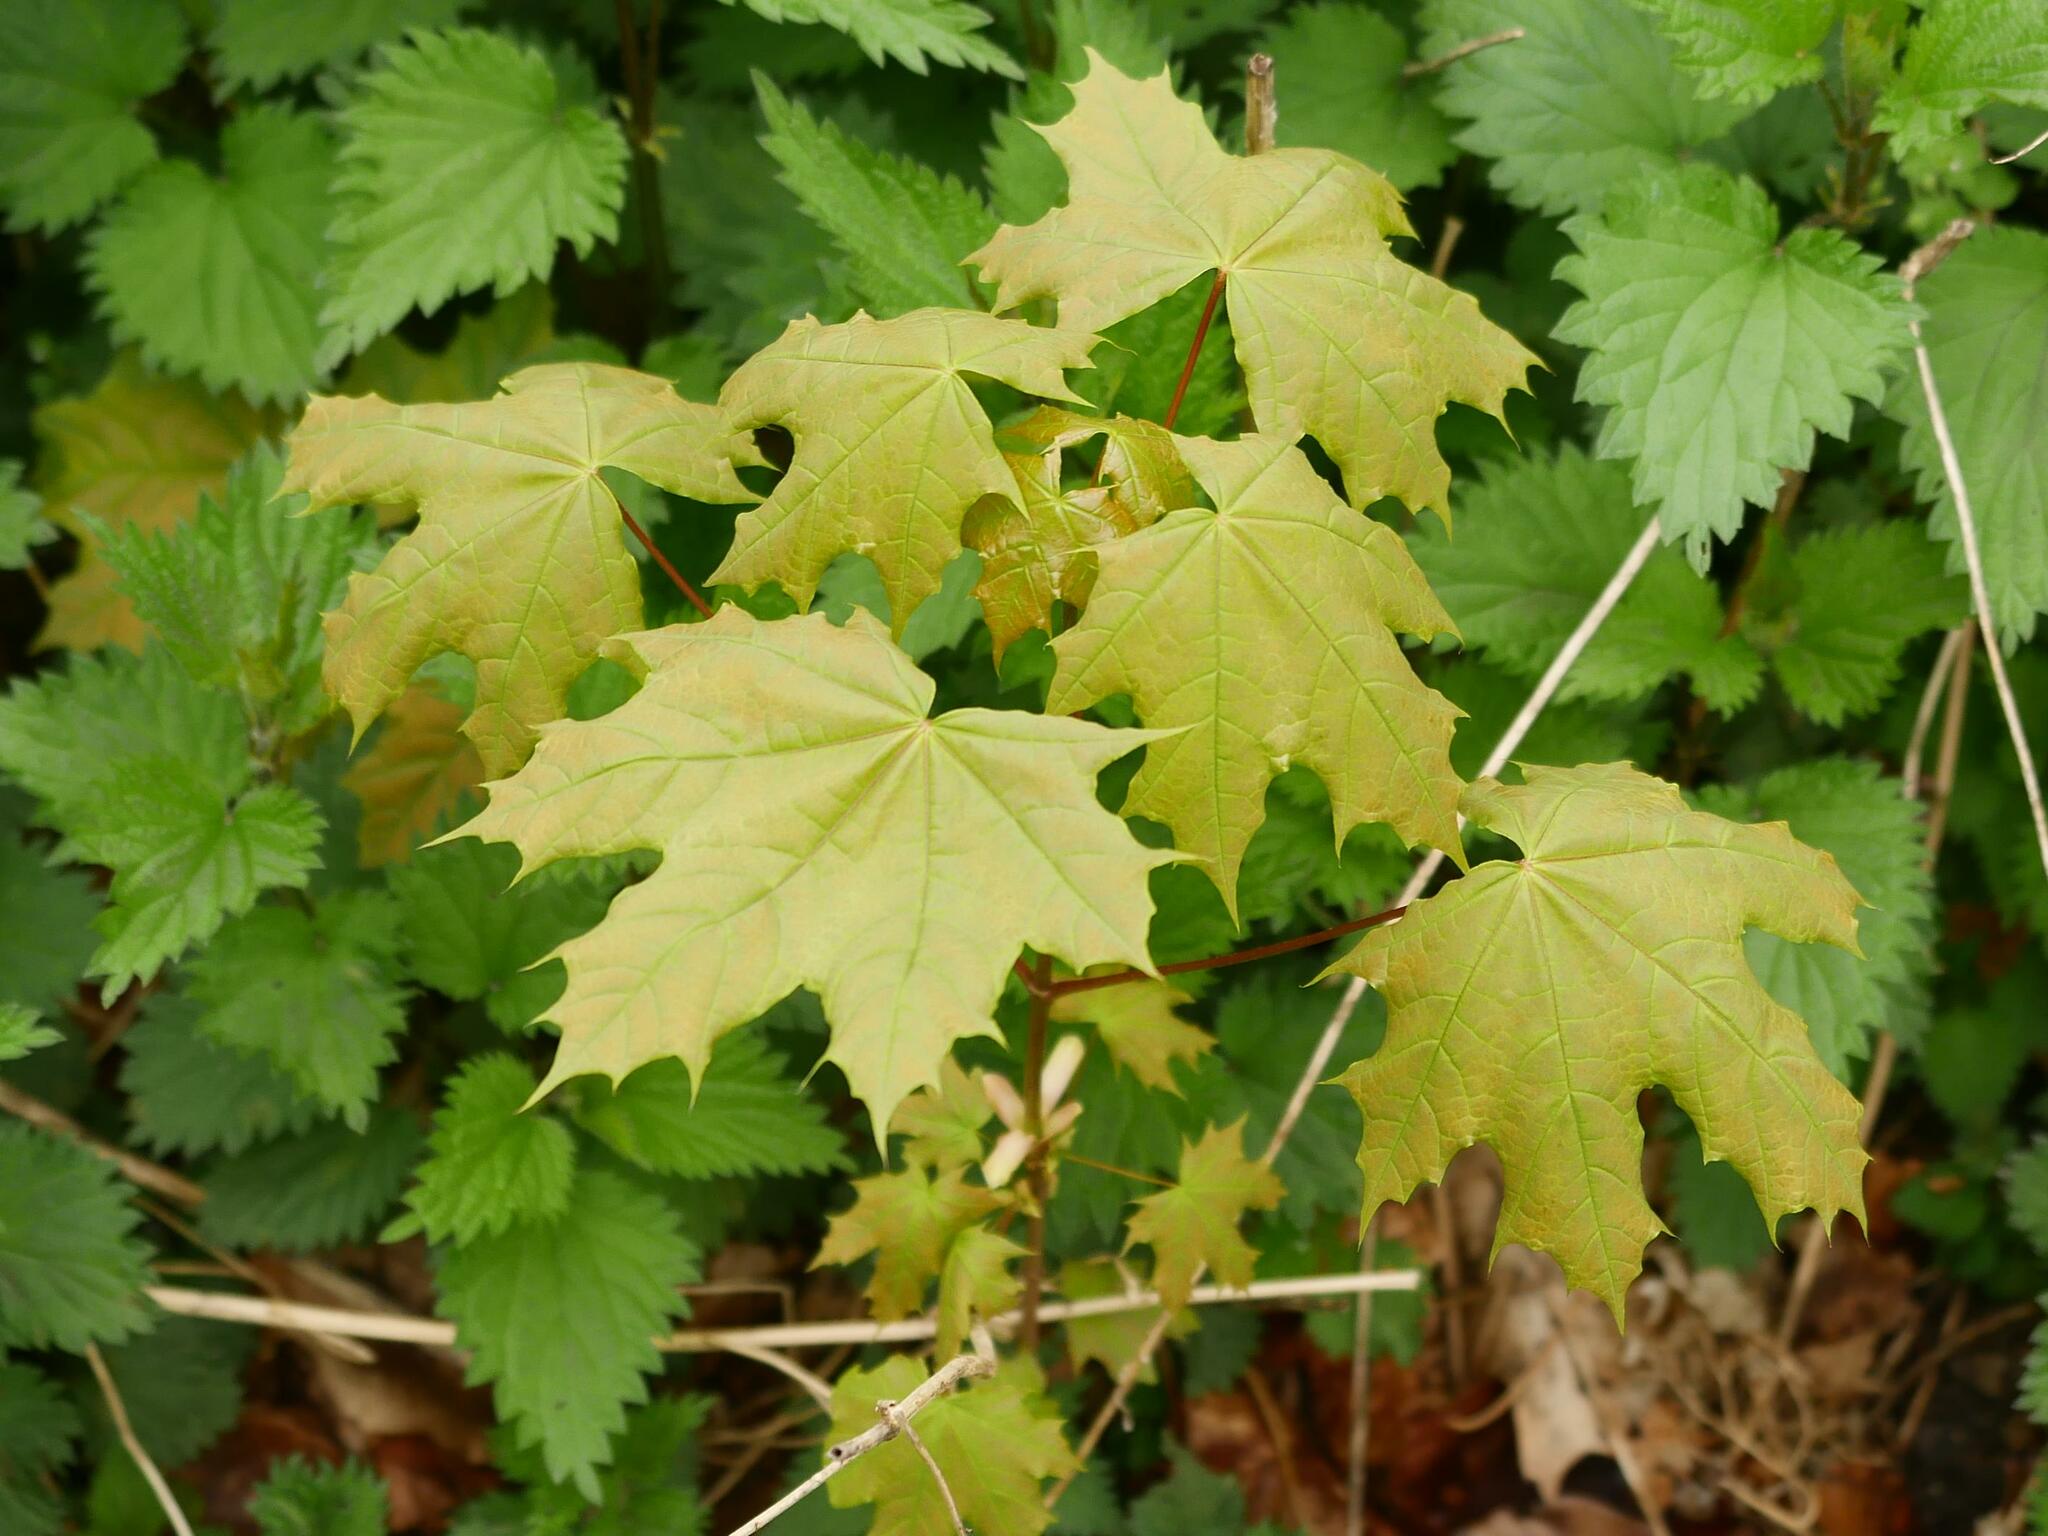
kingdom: Plantae
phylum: Tracheophyta
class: Magnoliopsida
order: Sapindales
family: Sapindaceae
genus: Acer
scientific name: Acer platanoides
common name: Norway maple
